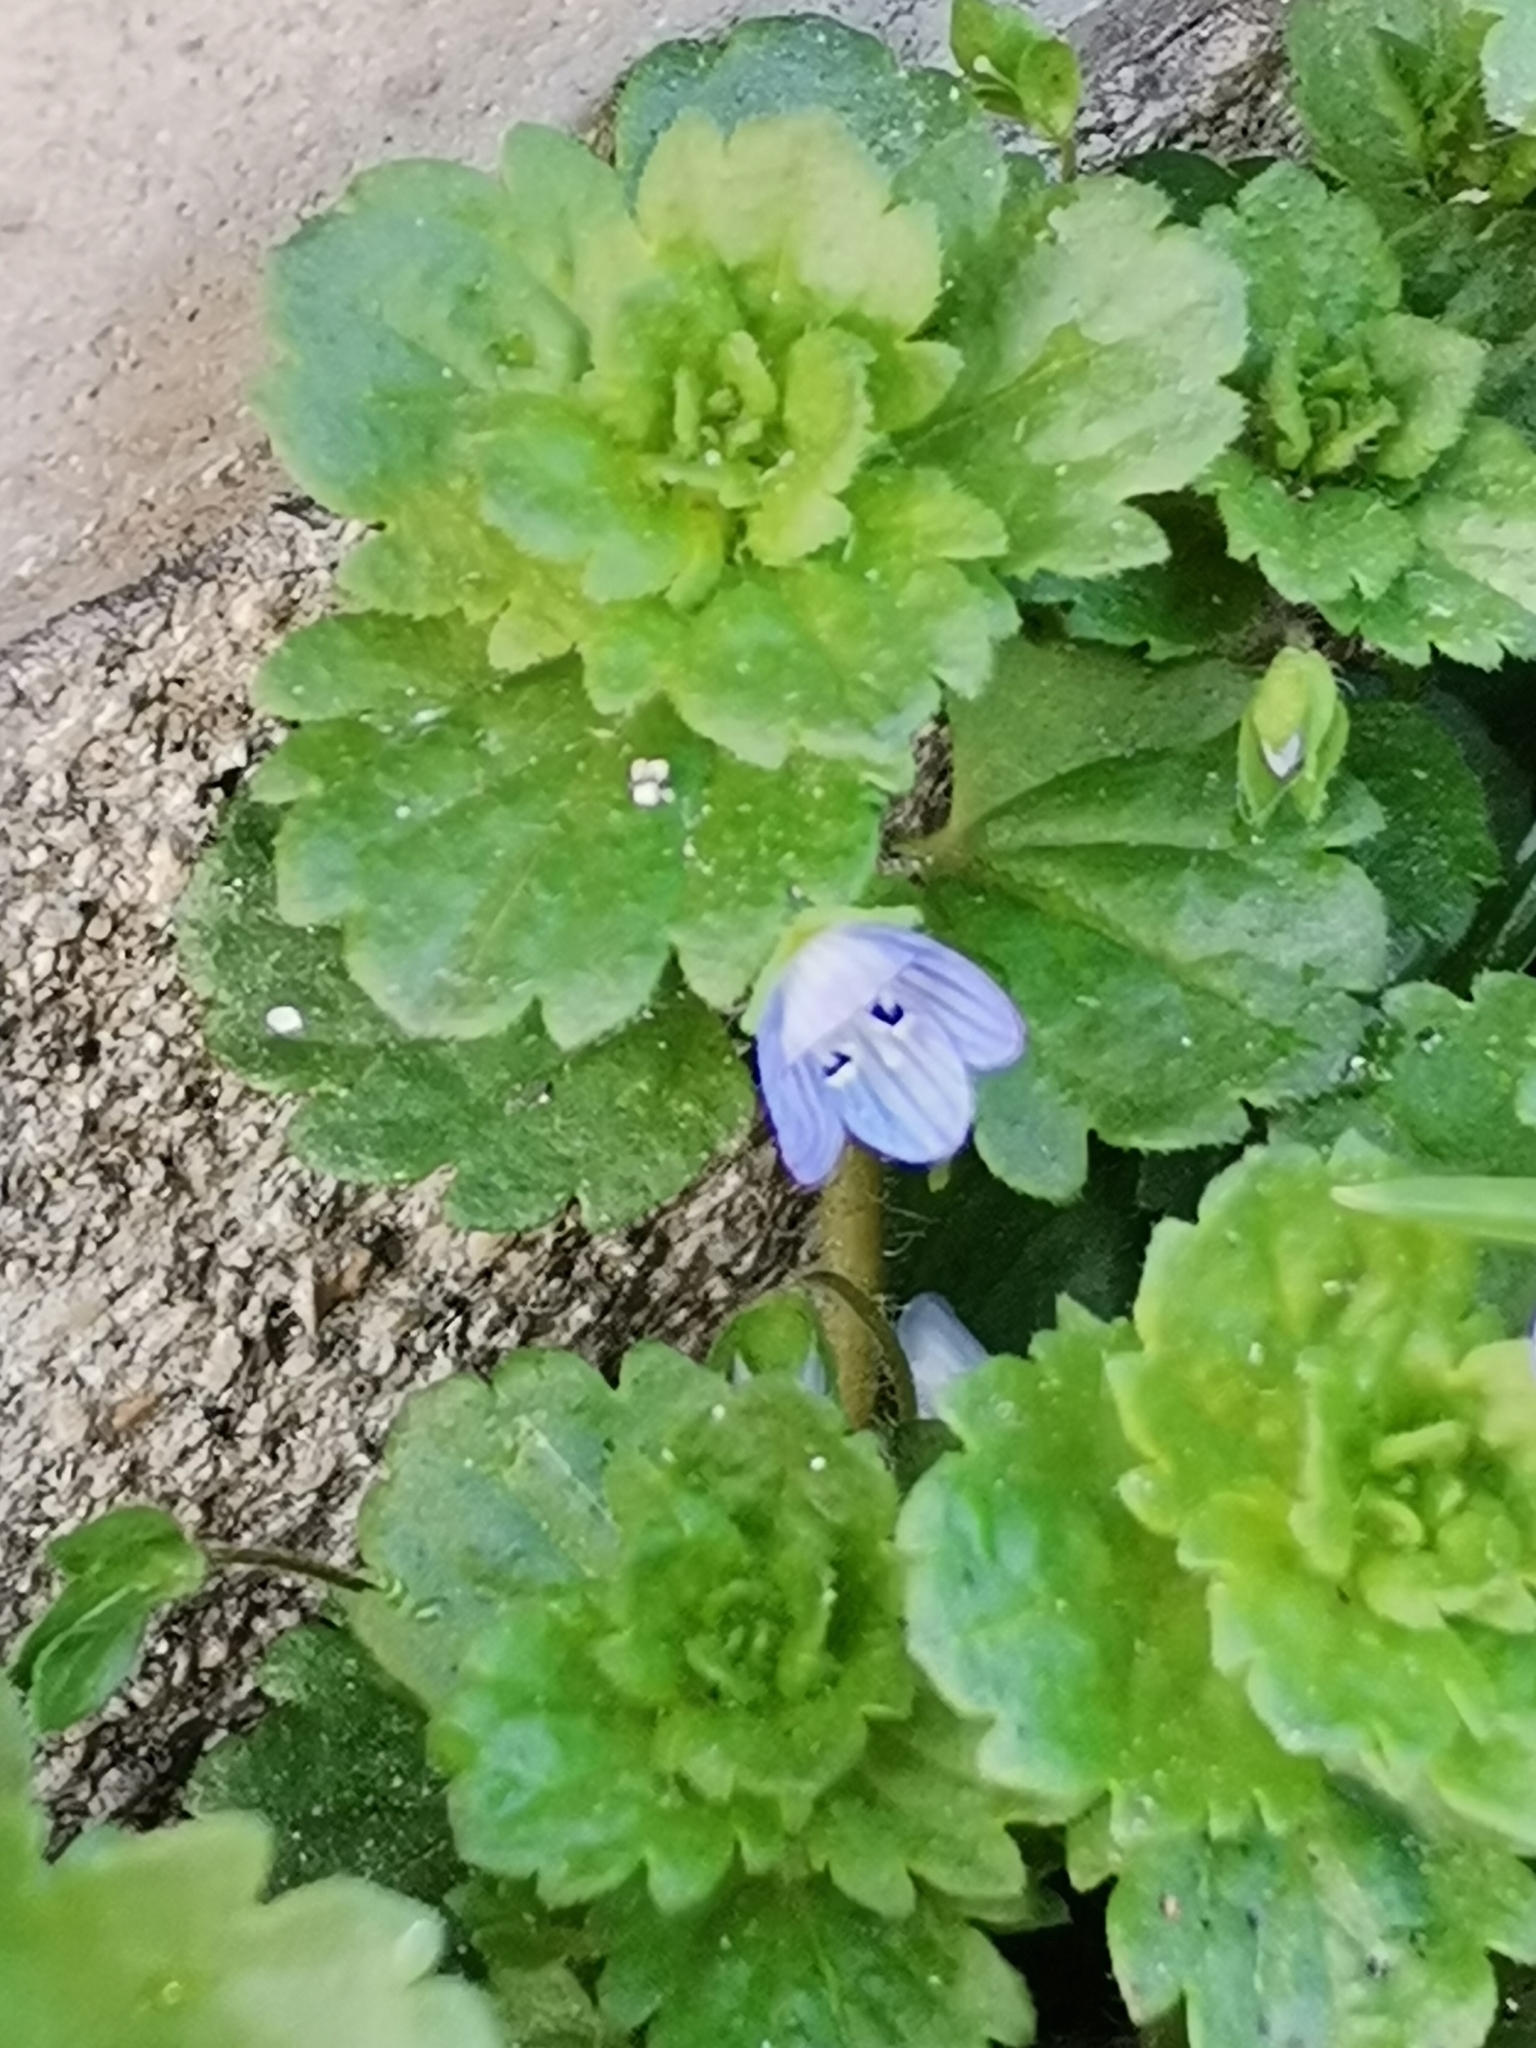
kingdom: Plantae
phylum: Tracheophyta
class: Magnoliopsida
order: Lamiales
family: Plantaginaceae
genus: Veronica
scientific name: Veronica persica
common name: Common field-speedwell
